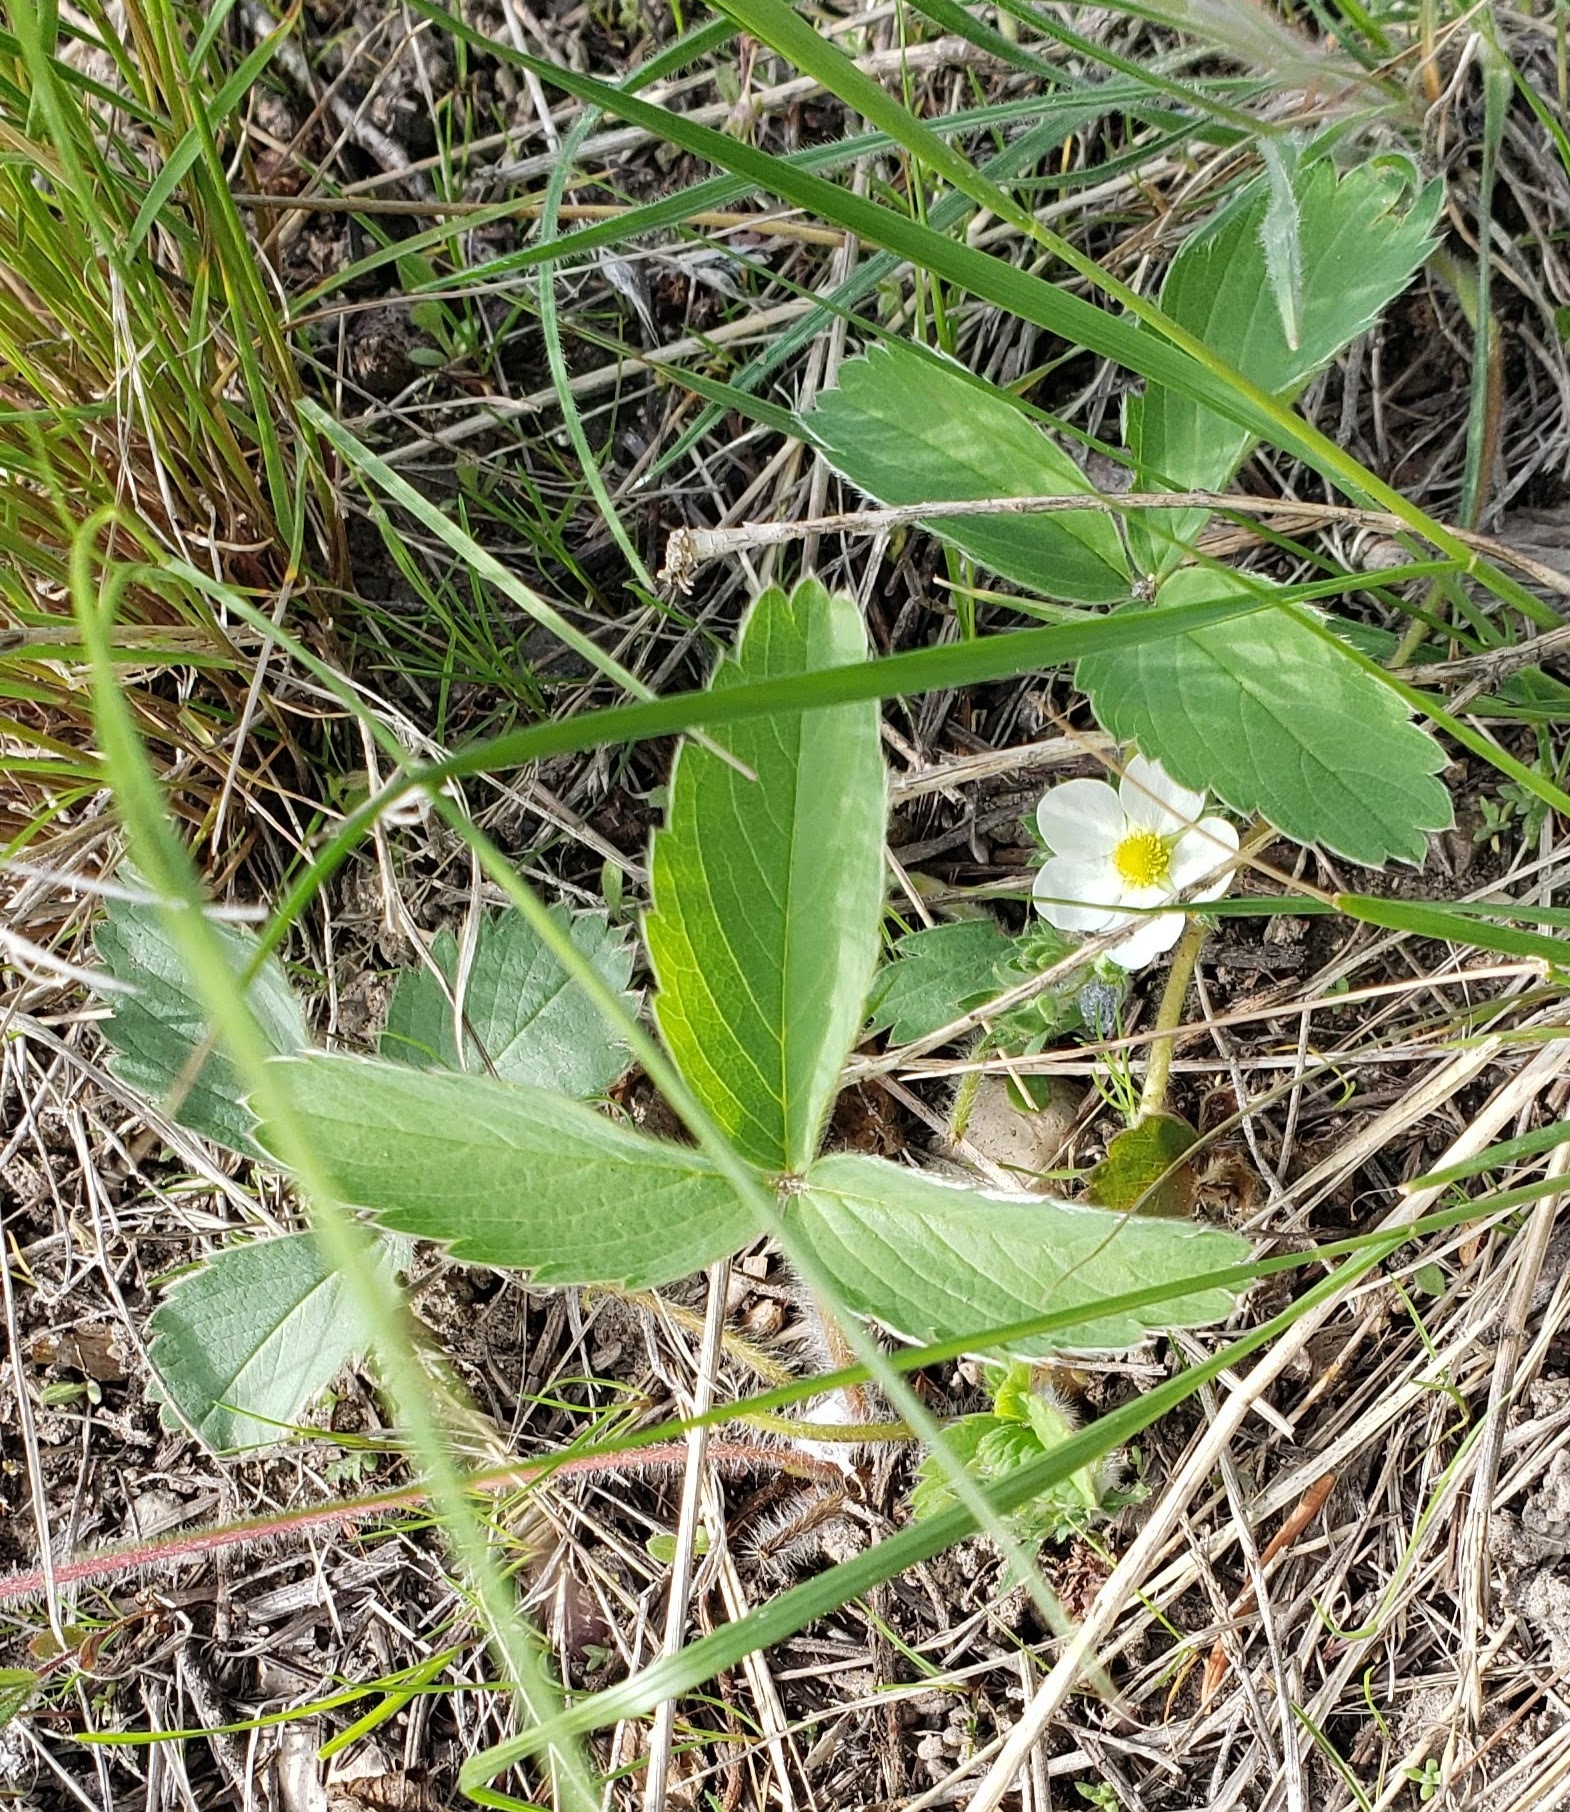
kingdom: Plantae
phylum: Tracheophyta
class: Magnoliopsida
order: Rosales
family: Rosaceae
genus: Fragaria
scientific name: Fragaria virginiana
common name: Thickleaved wild strawberry
